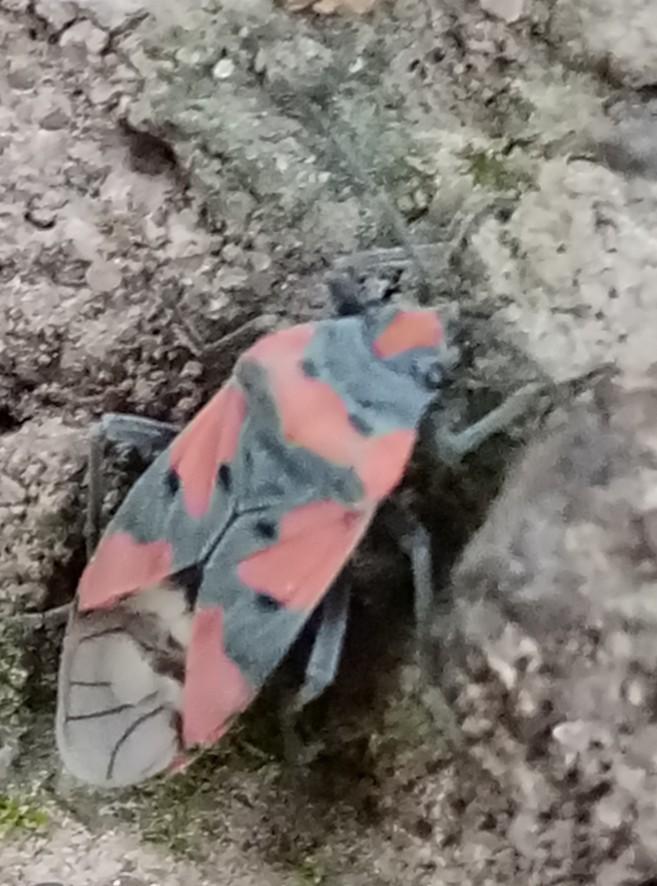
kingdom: Animalia
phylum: Arthropoda
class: Insecta
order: Hemiptera
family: Lygaeidae
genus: Lygaeus
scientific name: Lygaeus equestris
